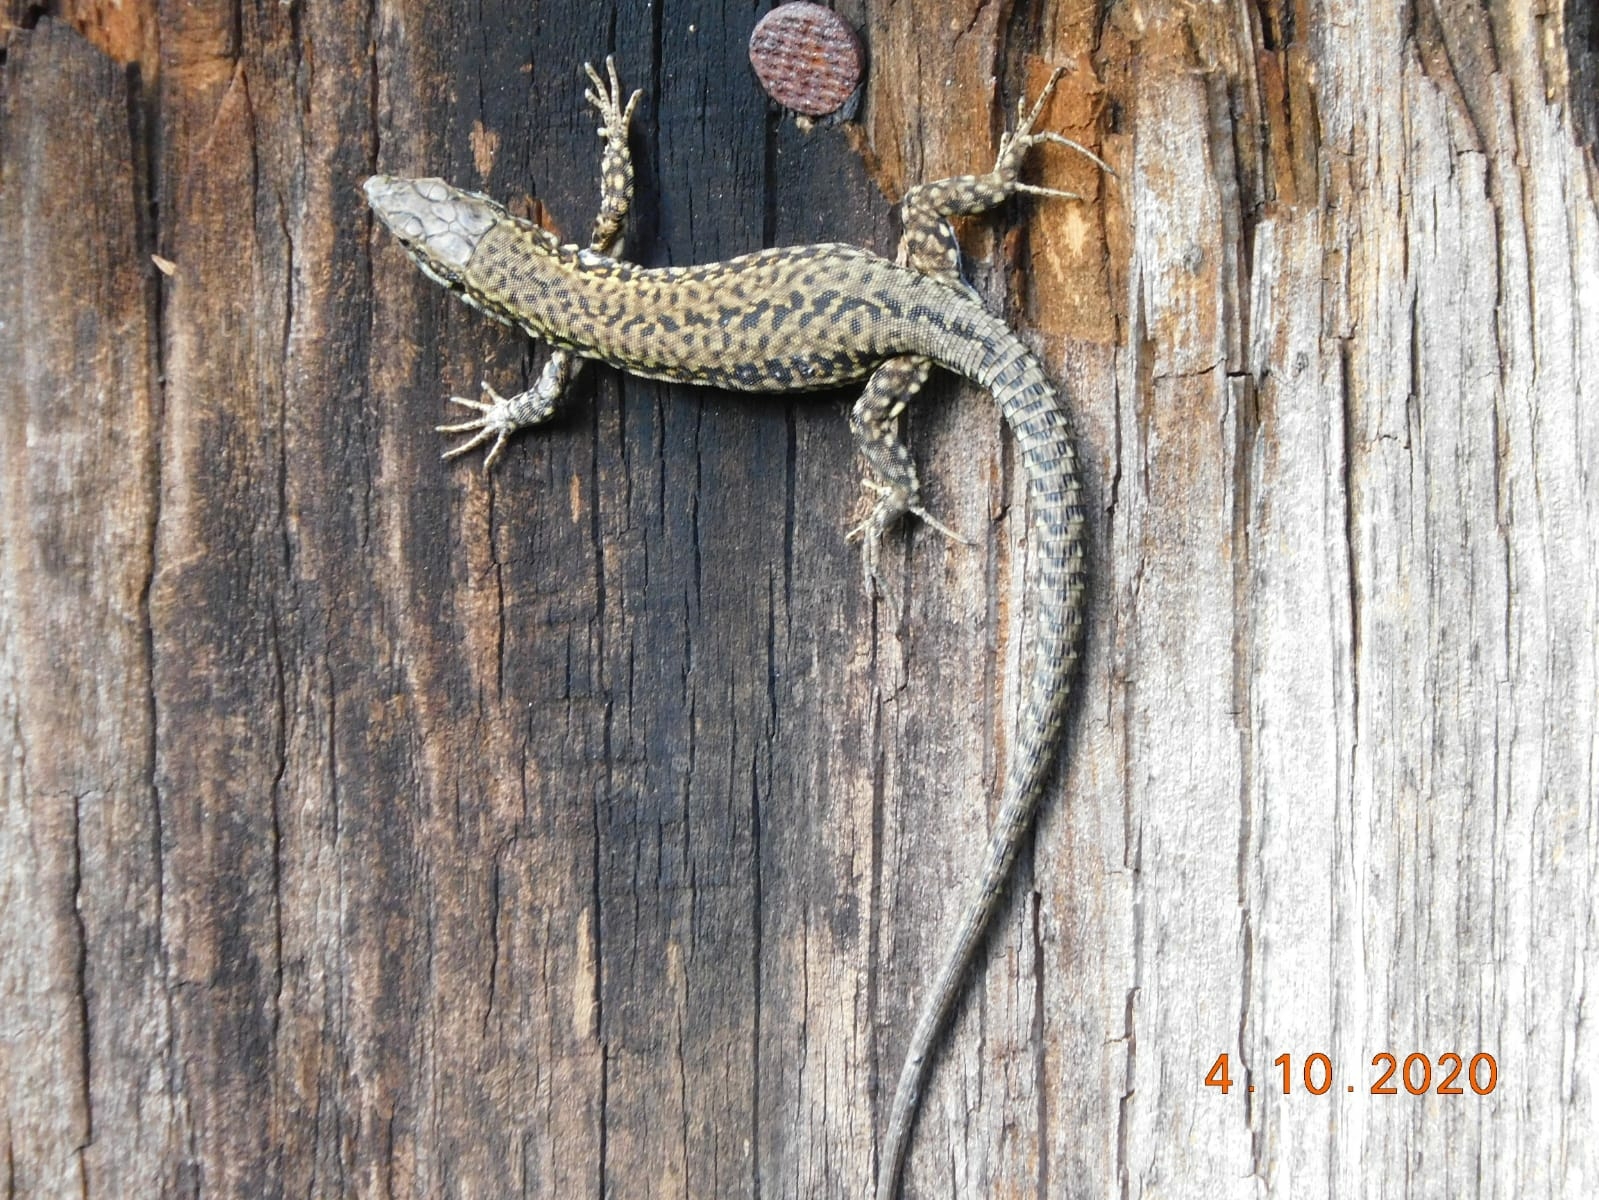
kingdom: Animalia
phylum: Chordata
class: Squamata
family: Lacertidae
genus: Podarcis
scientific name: Podarcis muralis
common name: Common wall lizard
